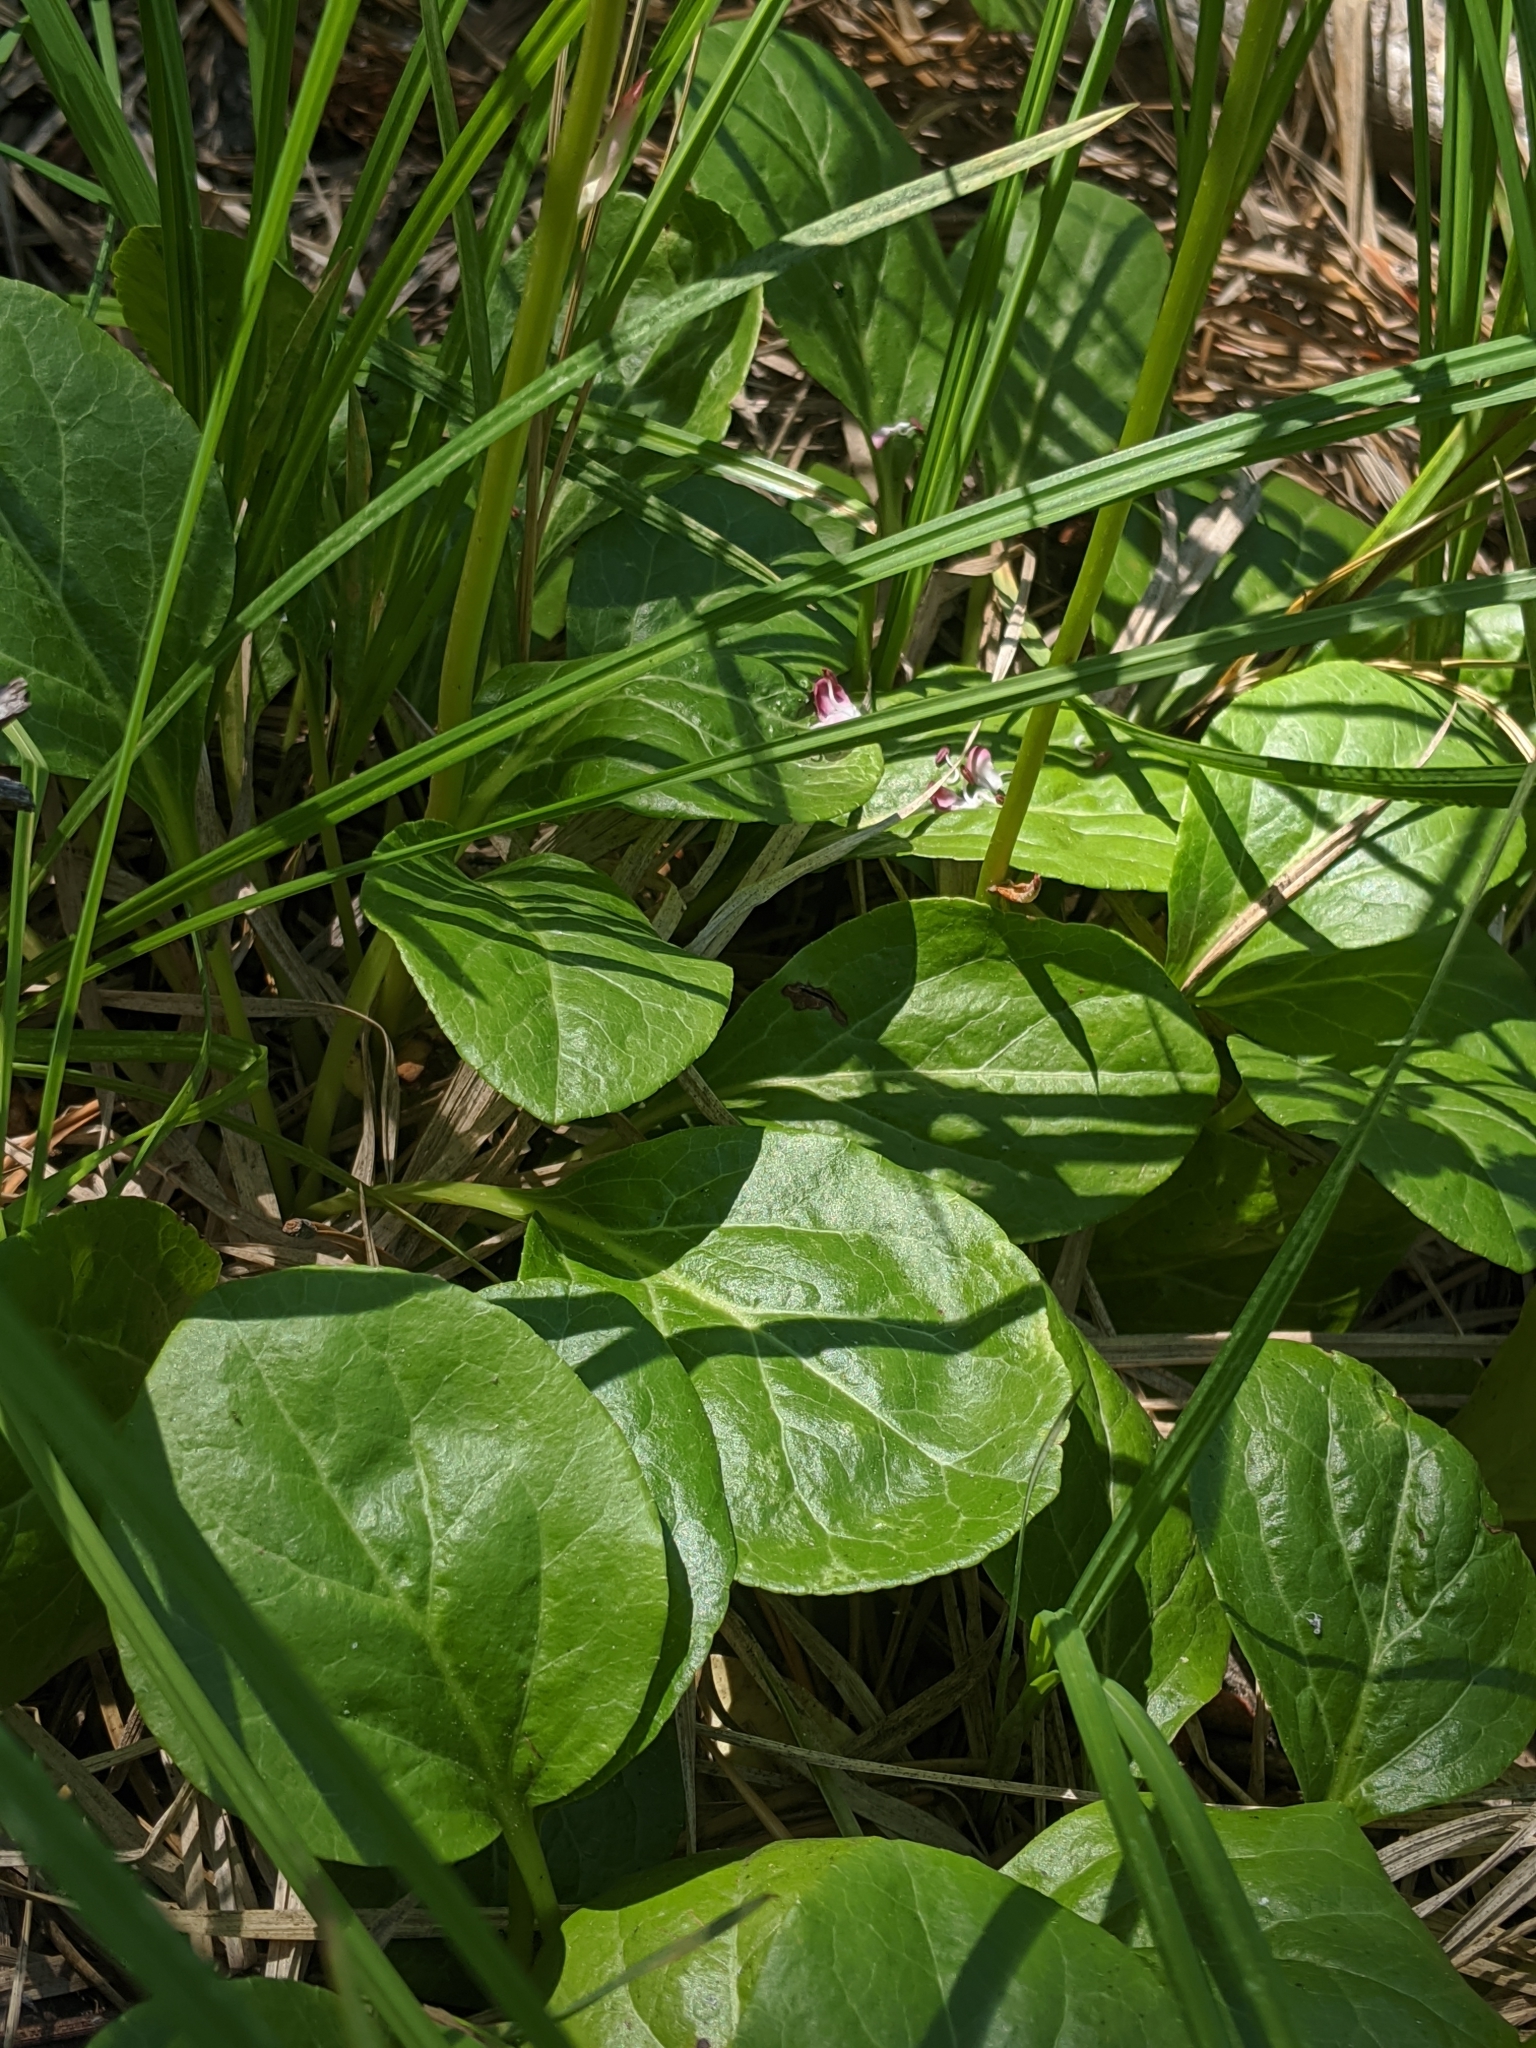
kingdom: Plantae
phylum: Tracheophyta
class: Magnoliopsida
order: Ericales
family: Ericaceae
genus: Pyrola
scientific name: Pyrola asarifolia
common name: Bog wintergreen
